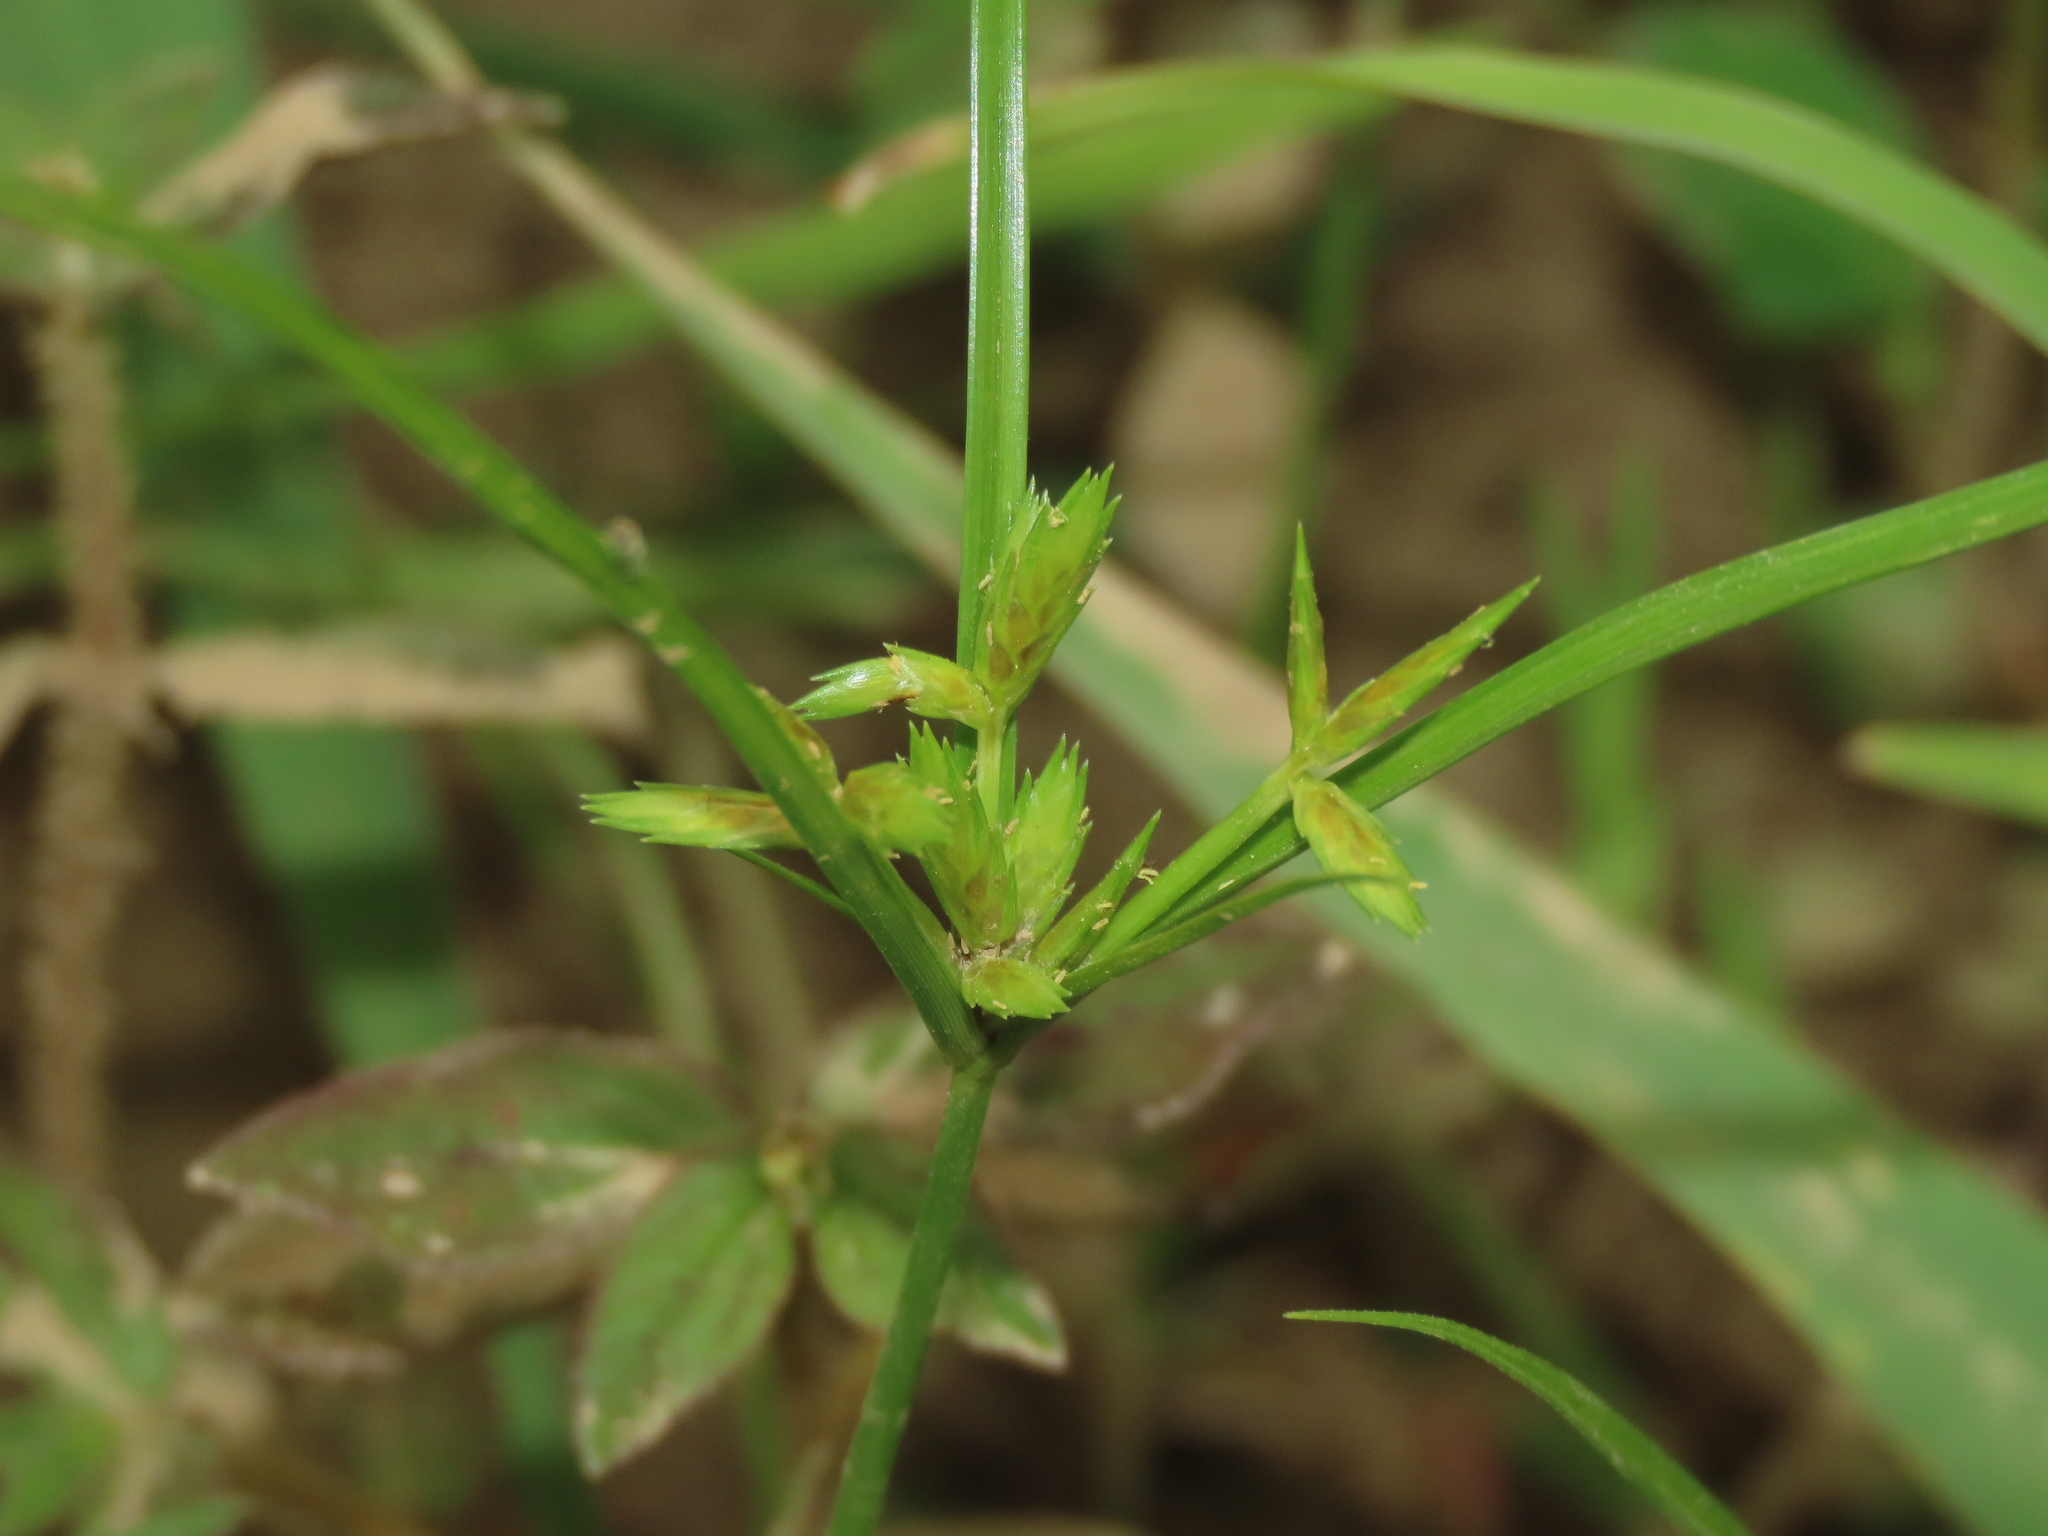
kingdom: Plantae
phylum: Tracheophyta
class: Liliopsida
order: Poales
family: Cyperaceae
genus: Cyperus
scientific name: Cyperus compressus
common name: Poorland flatsedge
